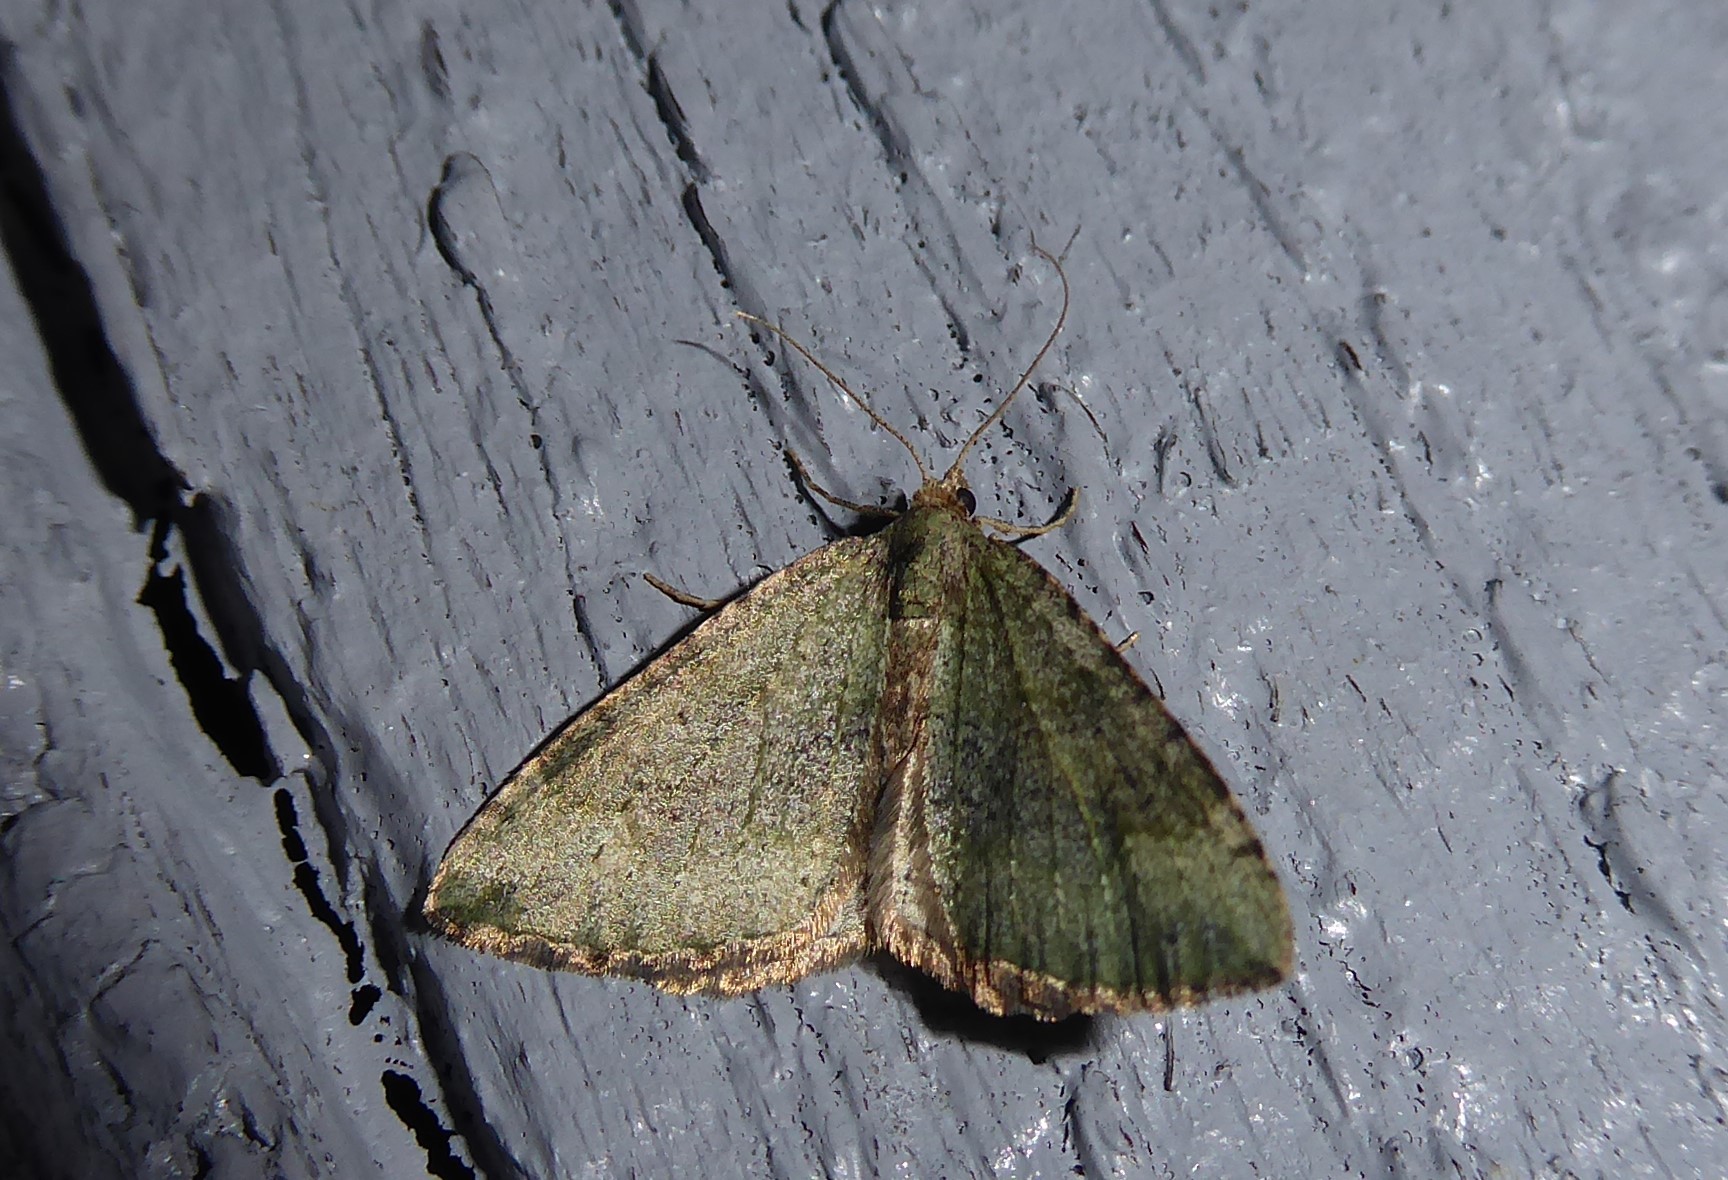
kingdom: Animalia
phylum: Arthropoda
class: Insecta
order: Lepidoptera
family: Geometridae
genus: Epyaxa
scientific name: Epyaxa rosearia
